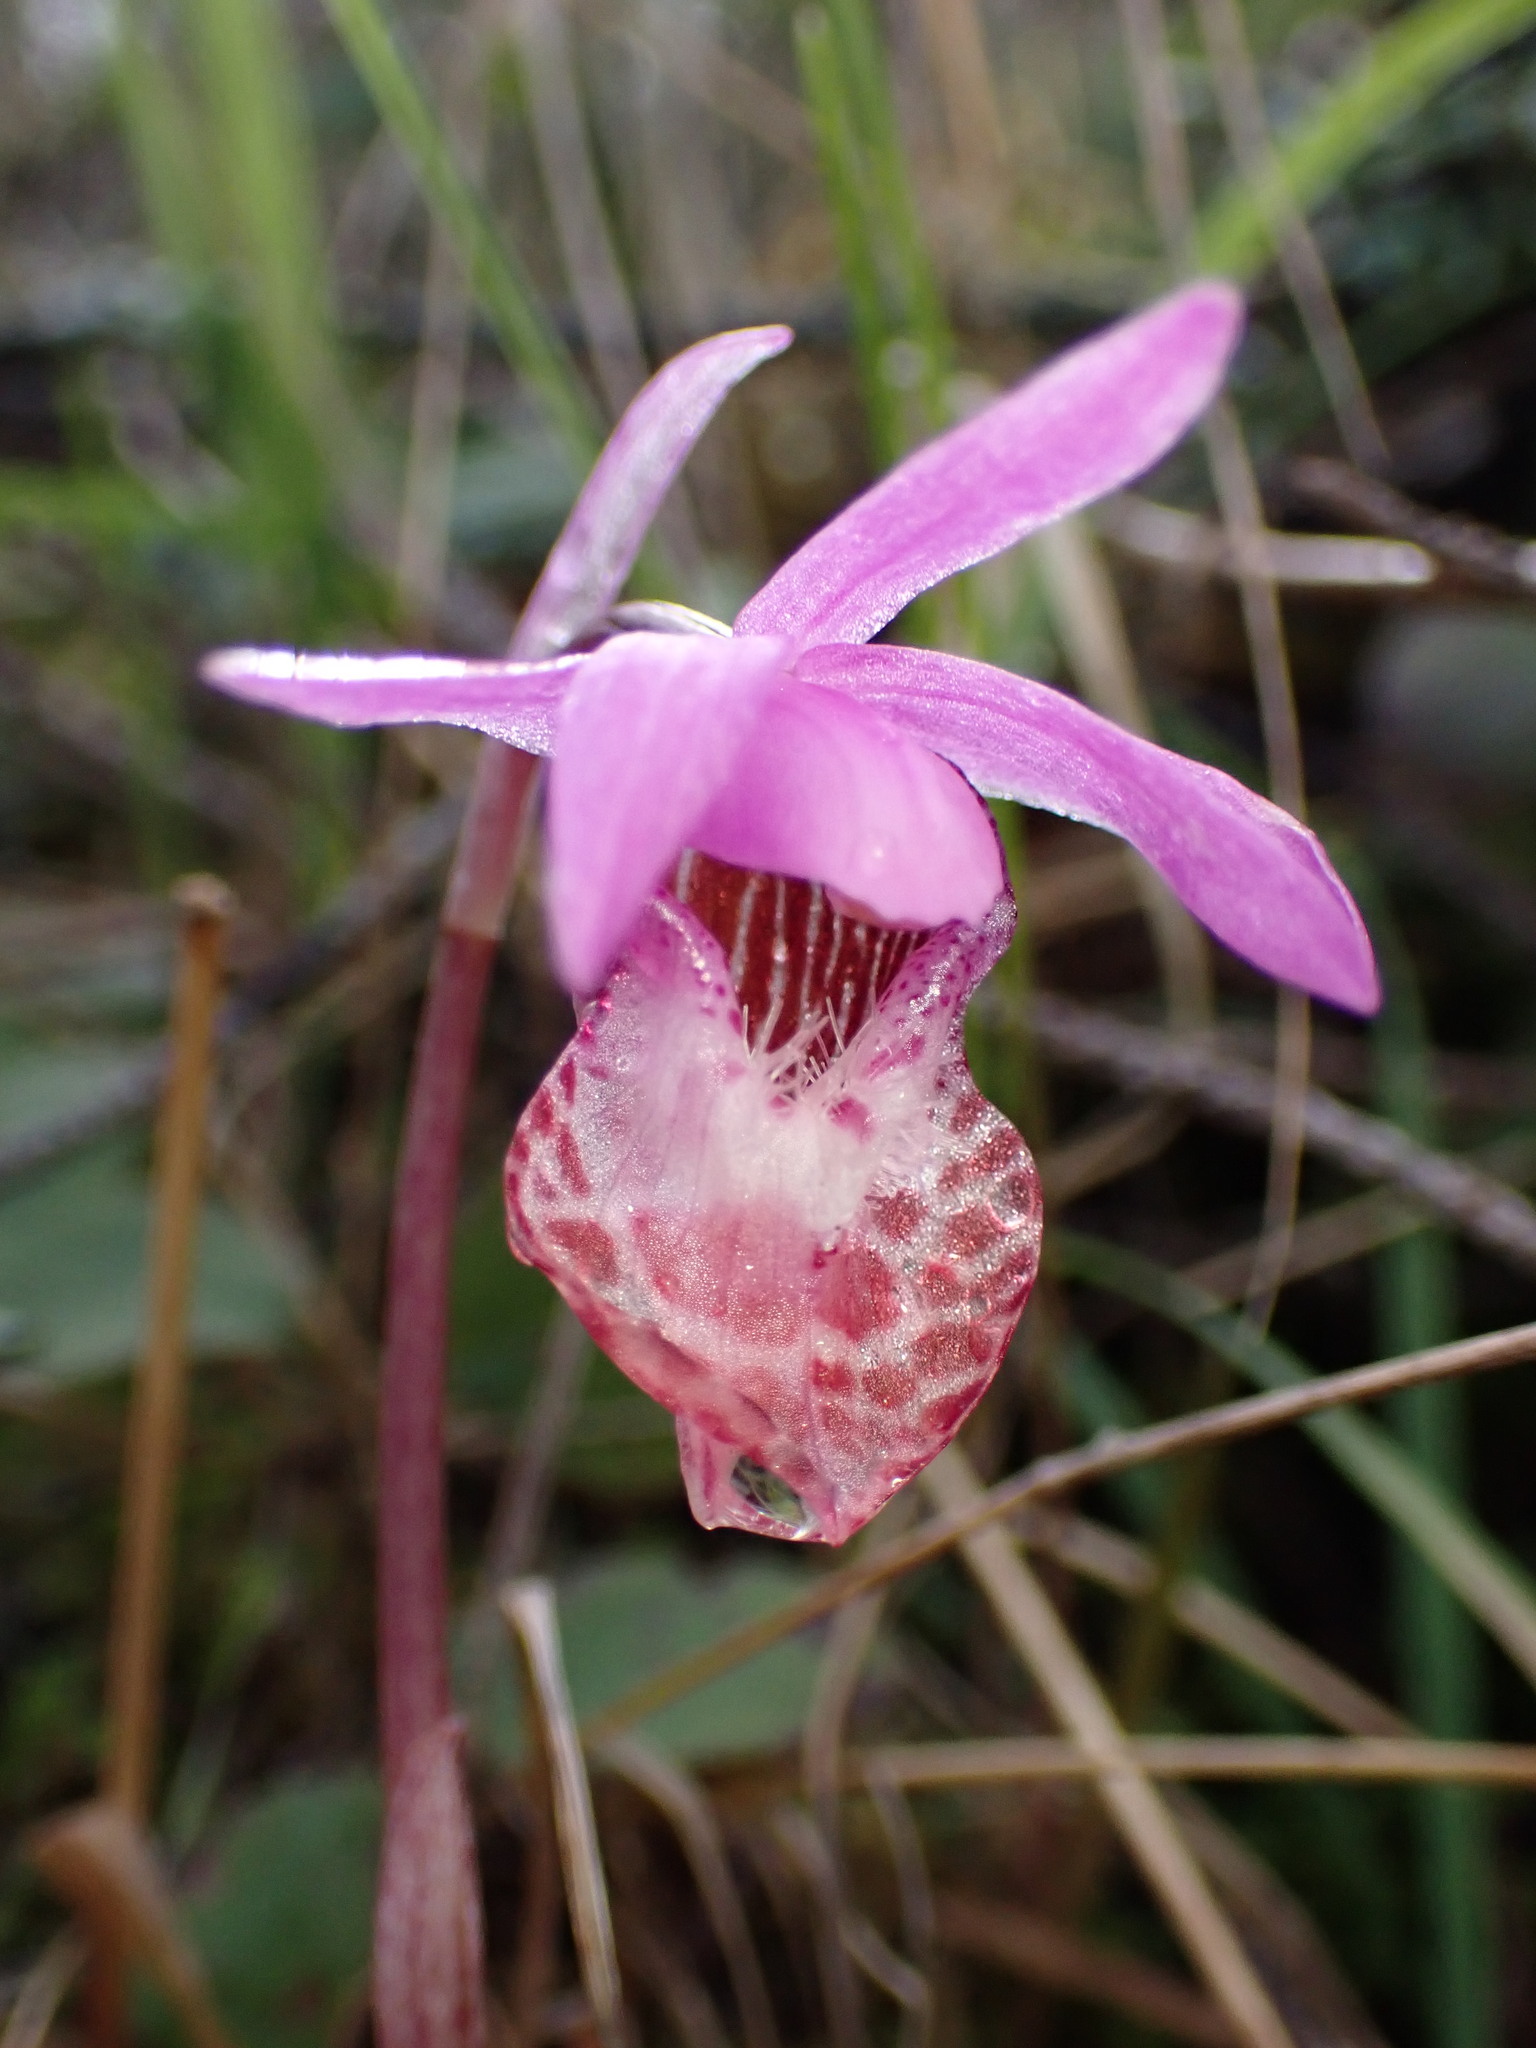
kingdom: Plantae
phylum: Tracheophyta
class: Liliopsida
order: Asparagales
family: Orchidaceae
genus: Calypso
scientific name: Calypso bulbosa
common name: Calypso
